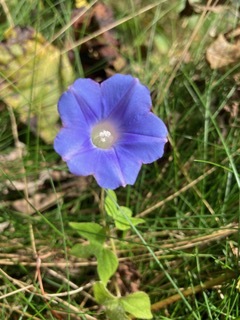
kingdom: Plantae
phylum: Tracheophyta
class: Magnoliopsida
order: Solanales
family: Convolvulaceae
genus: Ipomoea
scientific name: Ipomoea hederacea
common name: Ivy-leaved morning-glory
